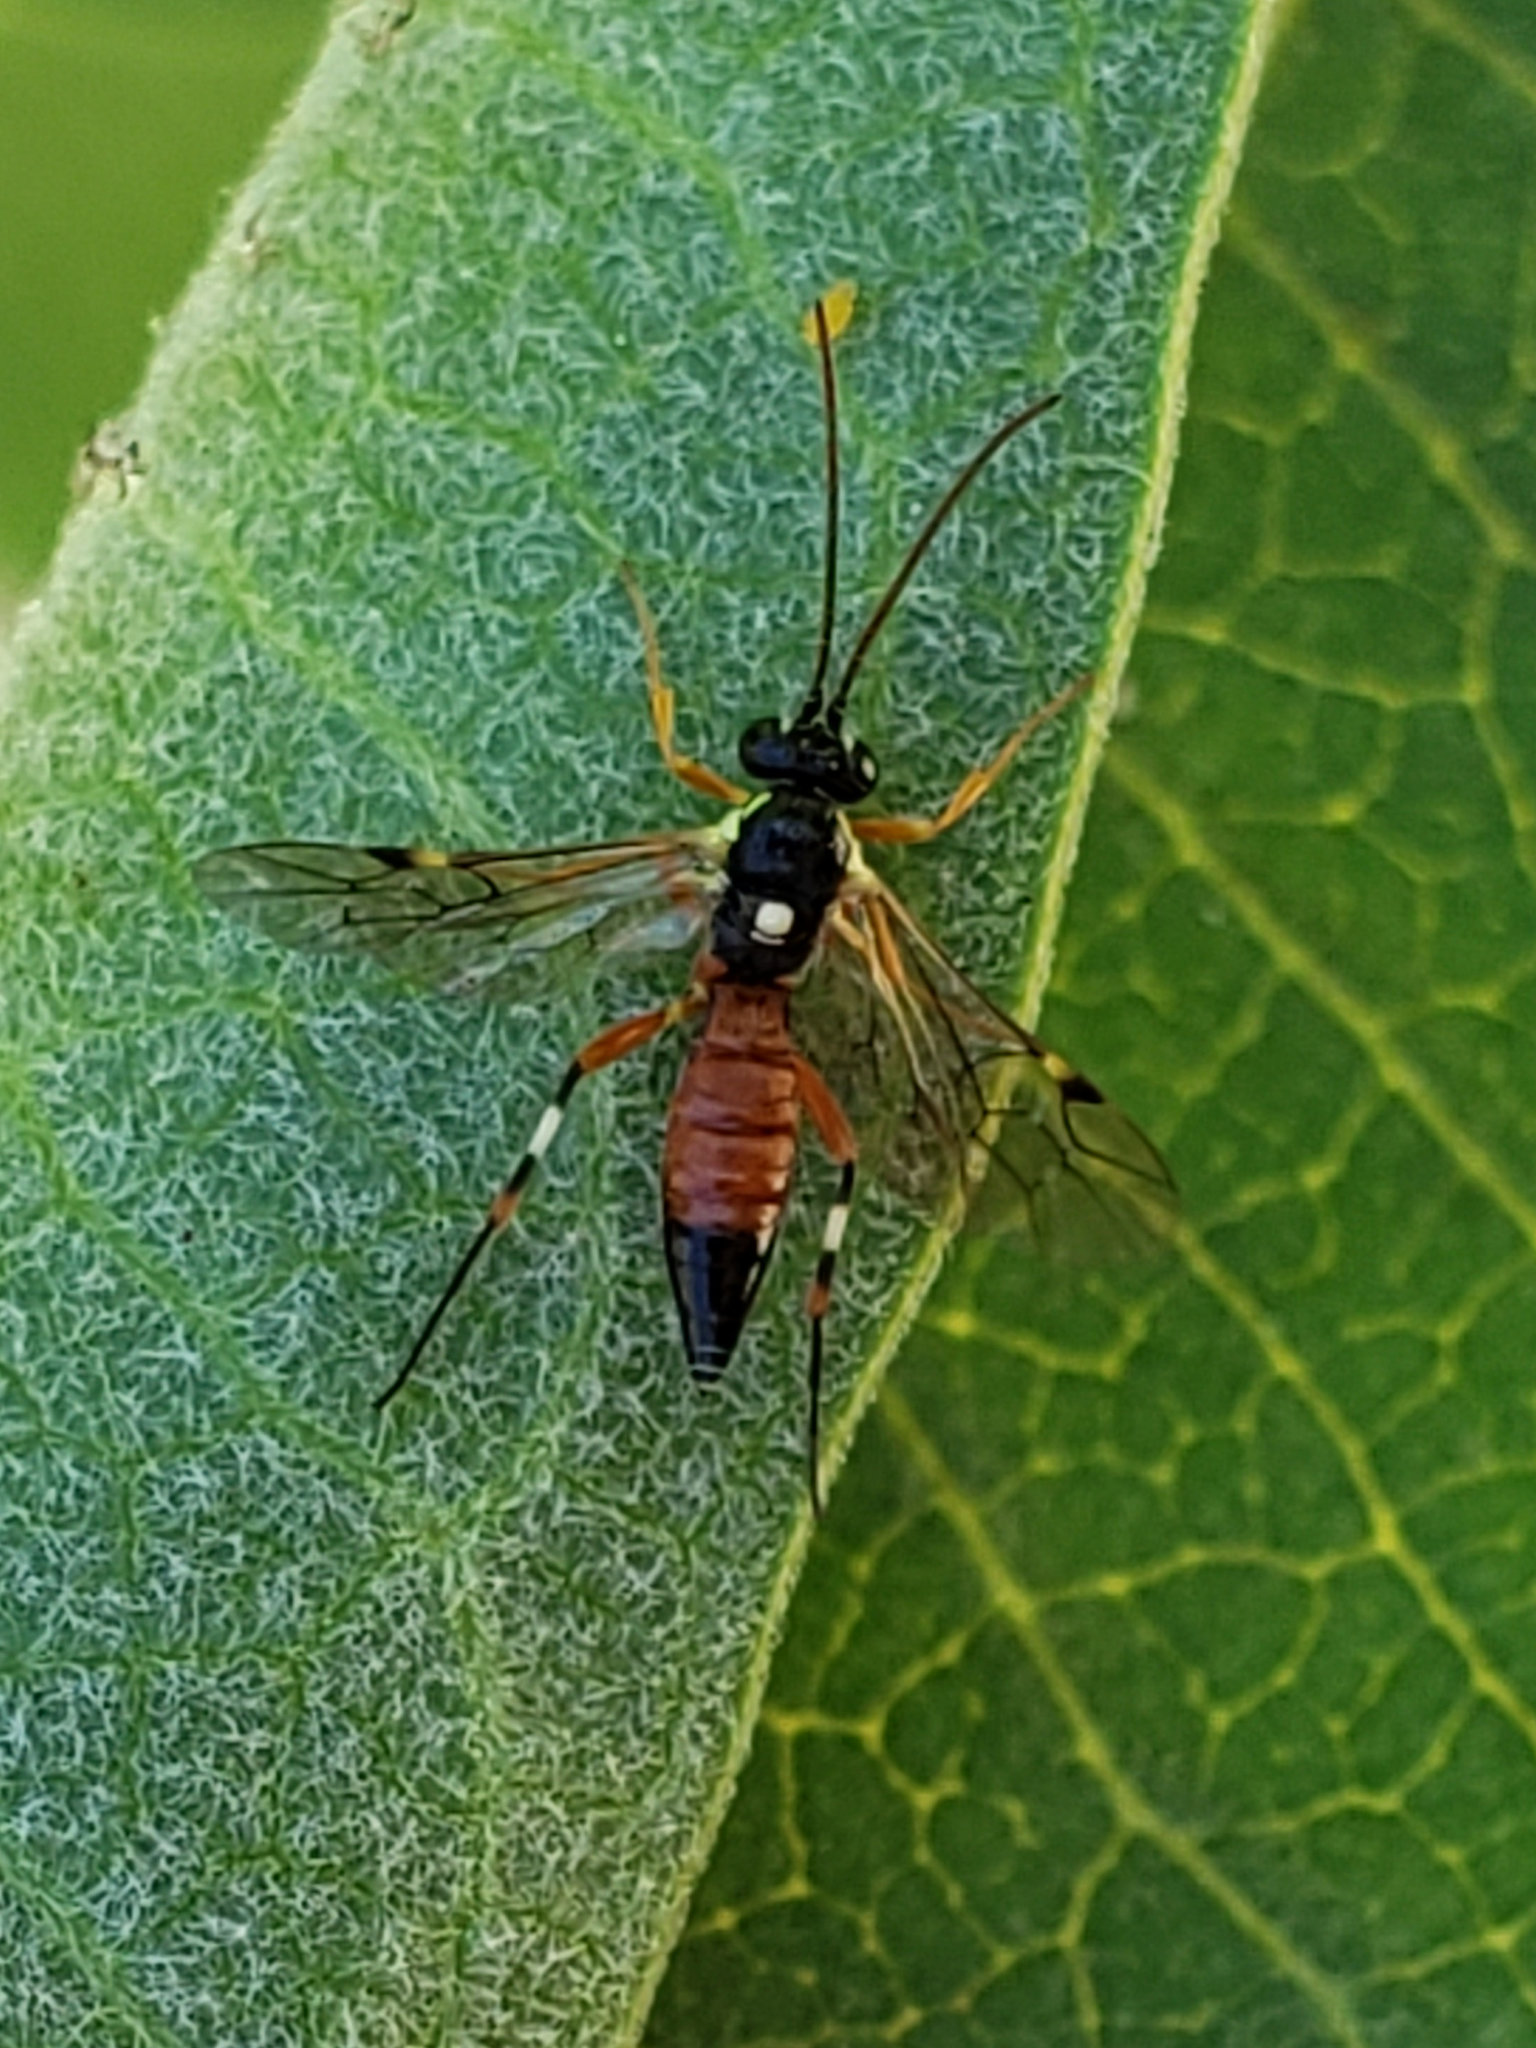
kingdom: Animalia
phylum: Arthropoda
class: Insecta
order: Hymenoptera
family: Ichneumonidae
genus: Diplazon
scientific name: Diplazon laetatorius
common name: Parasitoid wasp
